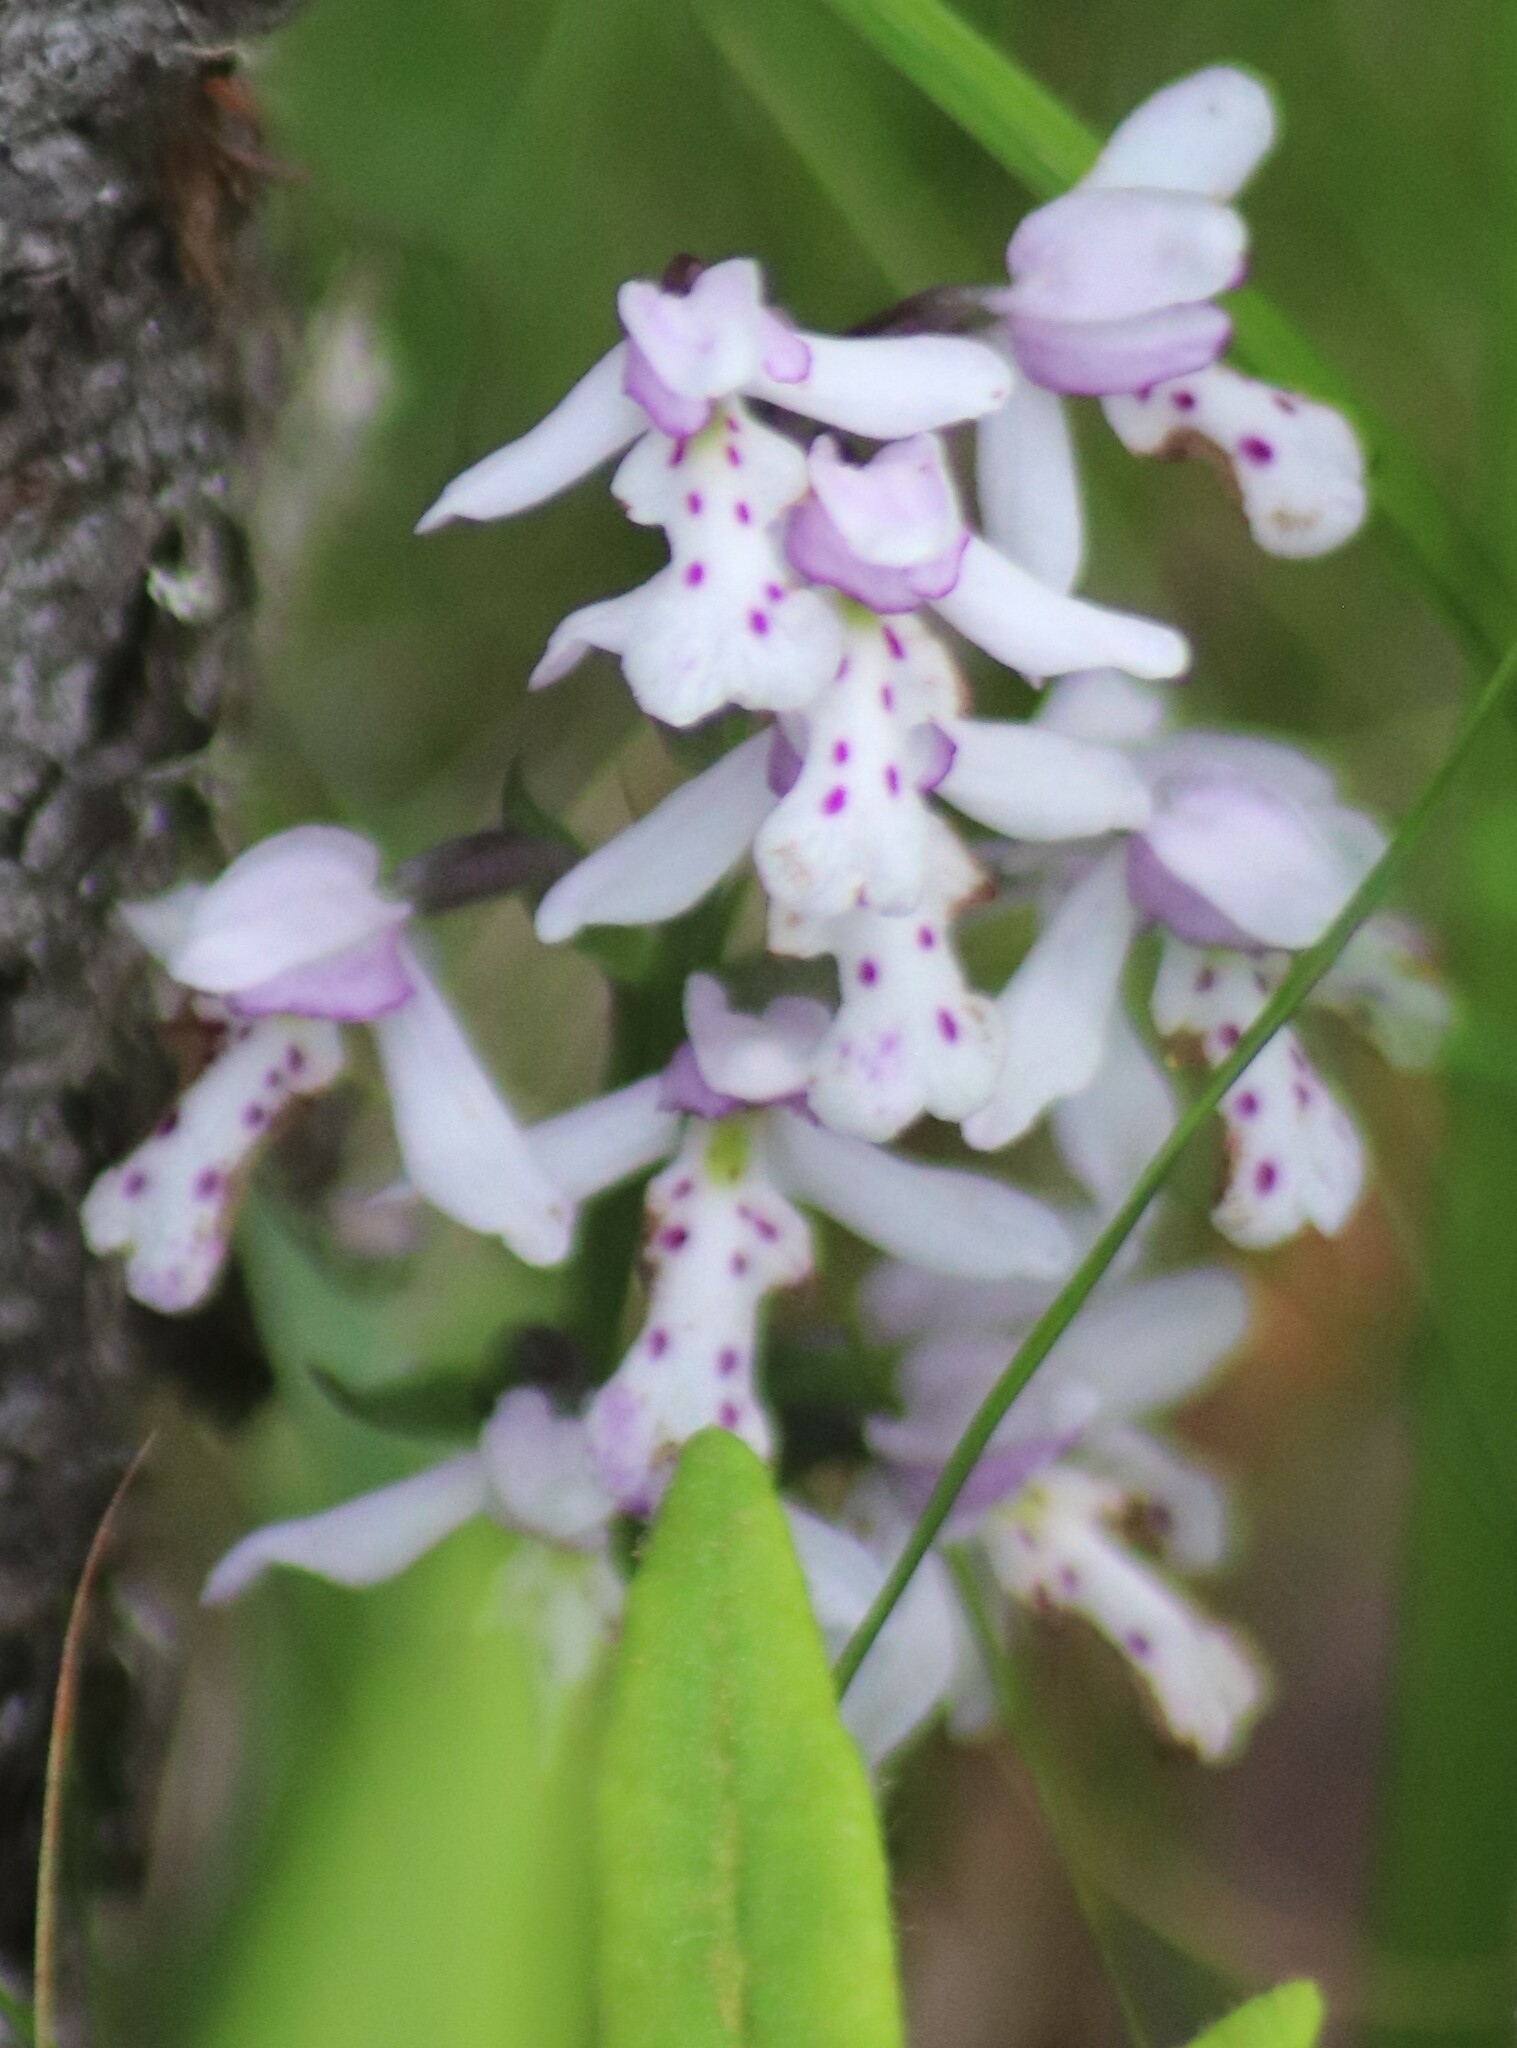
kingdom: Plantae
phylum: Tracheophyta
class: Liliopsida
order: Asparagales
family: Orchidaceae
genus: Galearis
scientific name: Galearis rotundifolia
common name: One-leaved orchis
